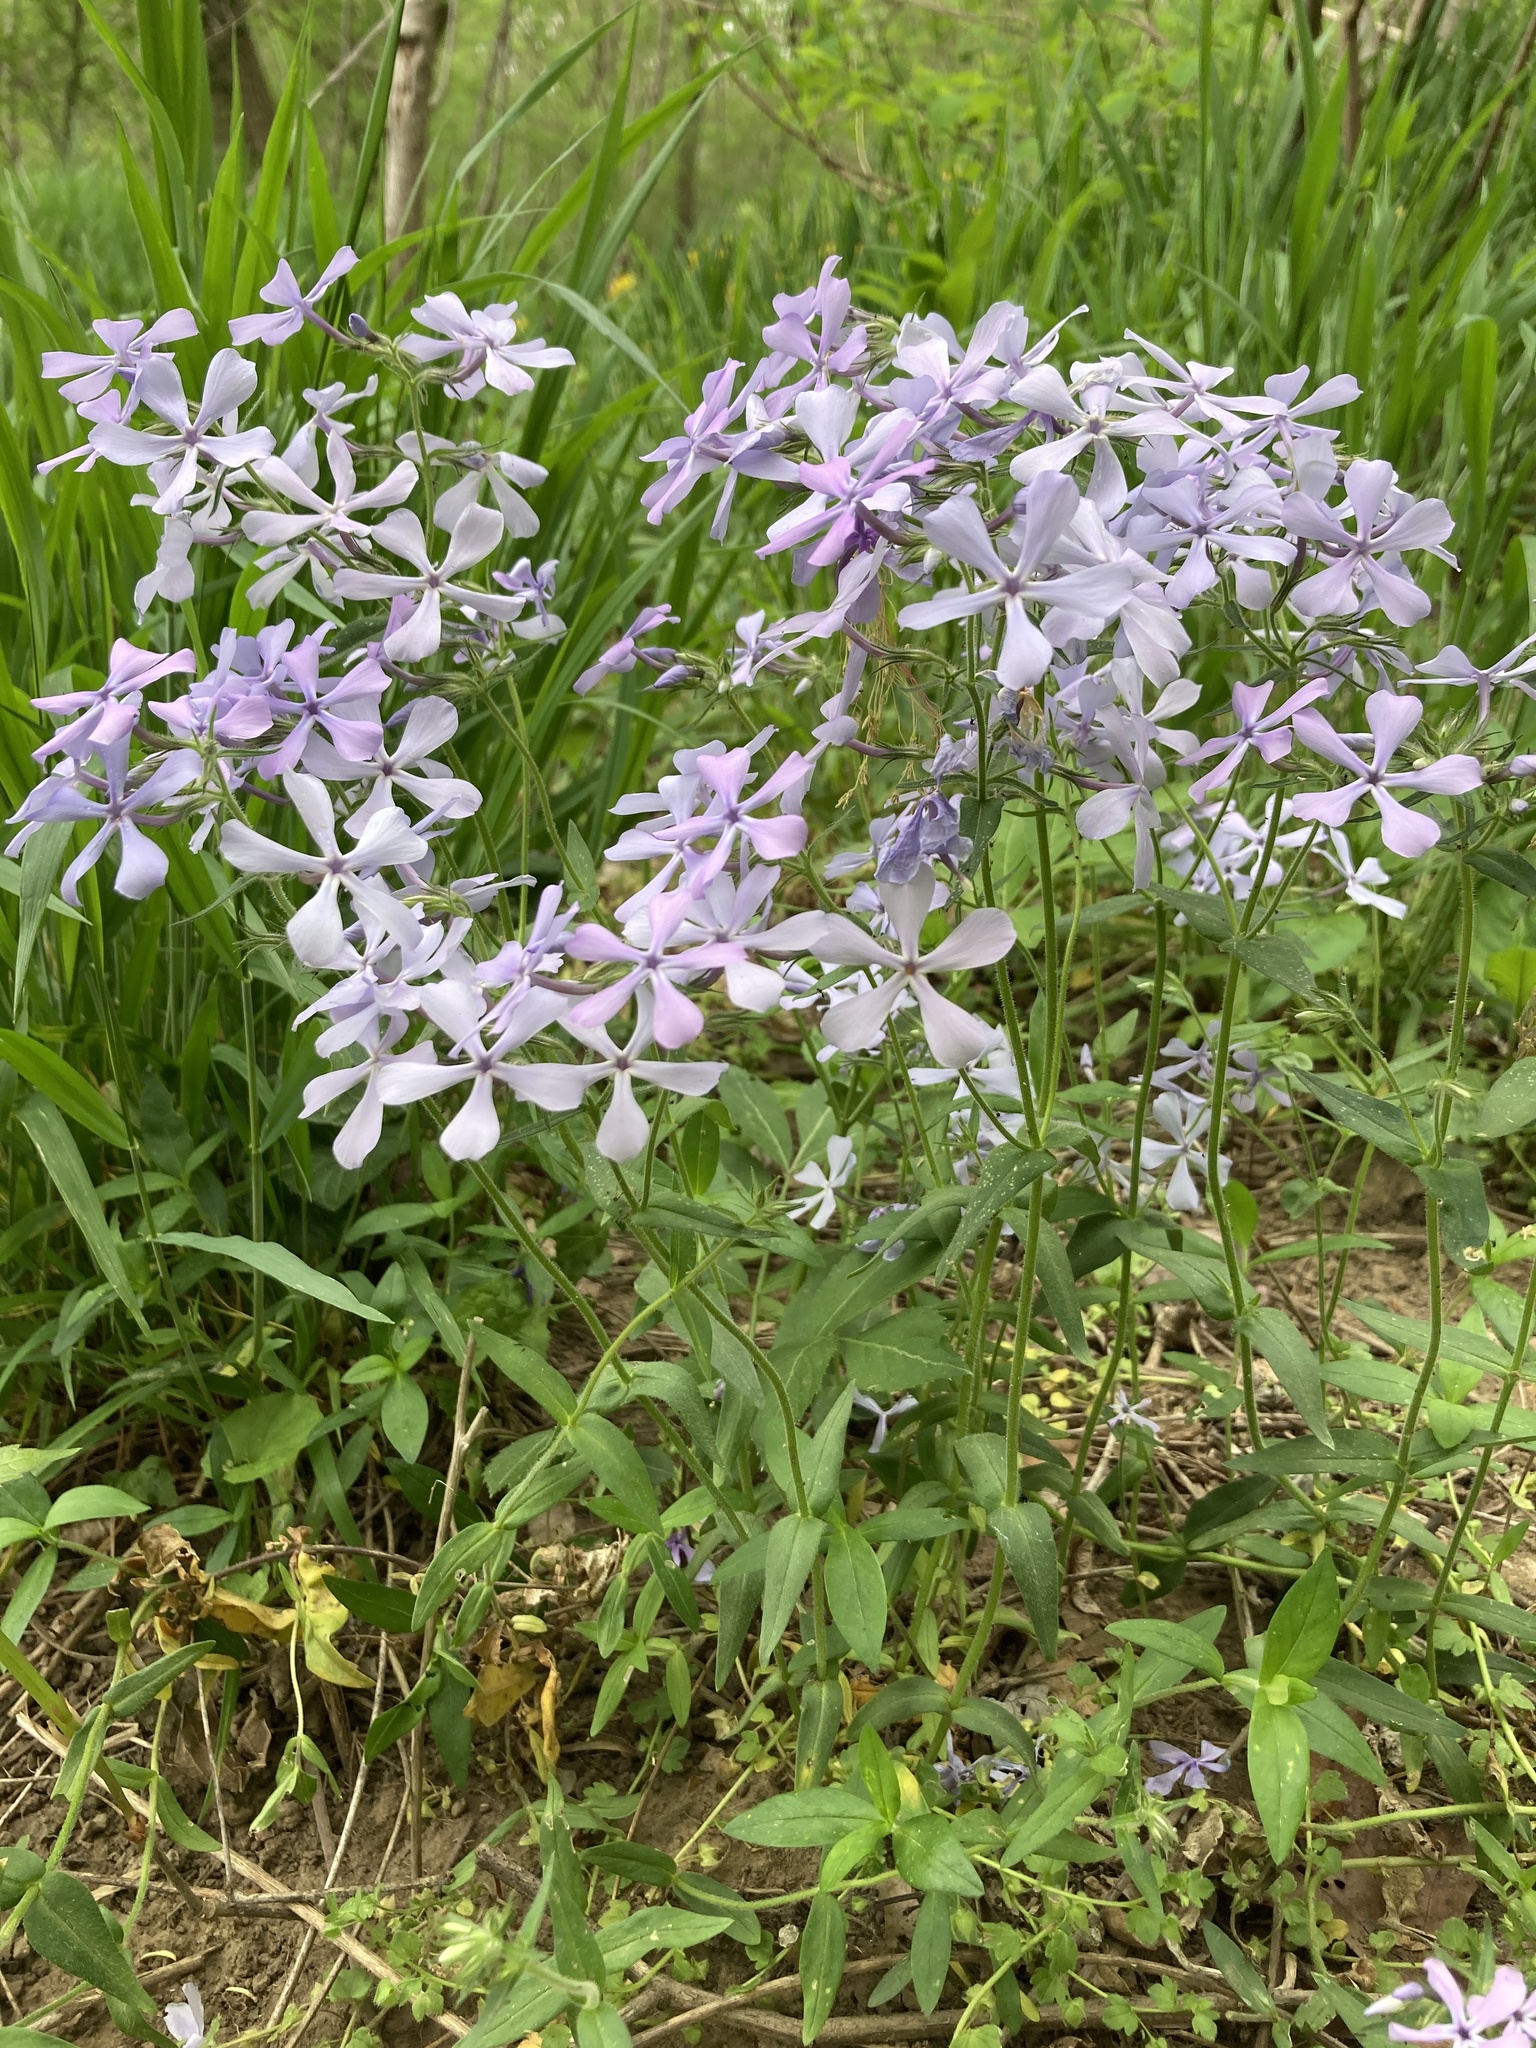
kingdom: Plantae
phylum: Tracheophyta
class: Magnoliopsida
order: Ericales
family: Polemoniaceae
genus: Phlox
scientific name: Phlox divaricata
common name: Blue phlox
